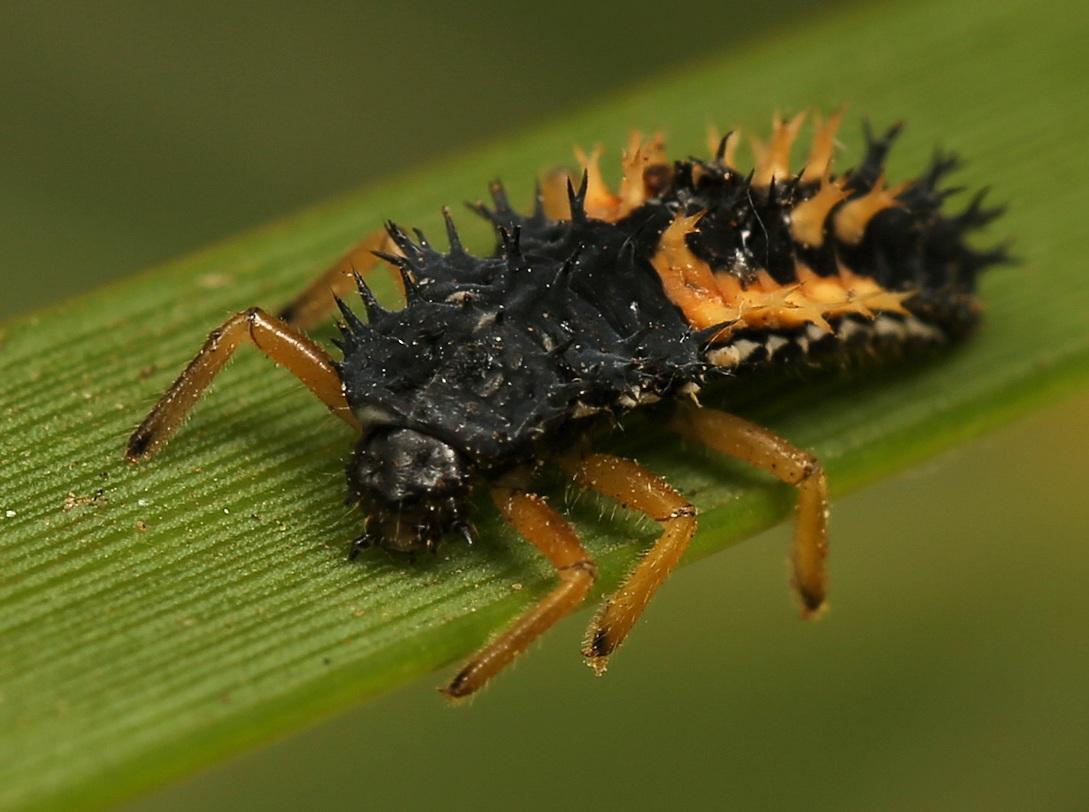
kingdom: Animalia
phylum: Arthropoda
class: Insecta
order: Coleoptera
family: Coccinellidae
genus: Harmonia
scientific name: Harmonia axyridis
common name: Harlequin ladybird
